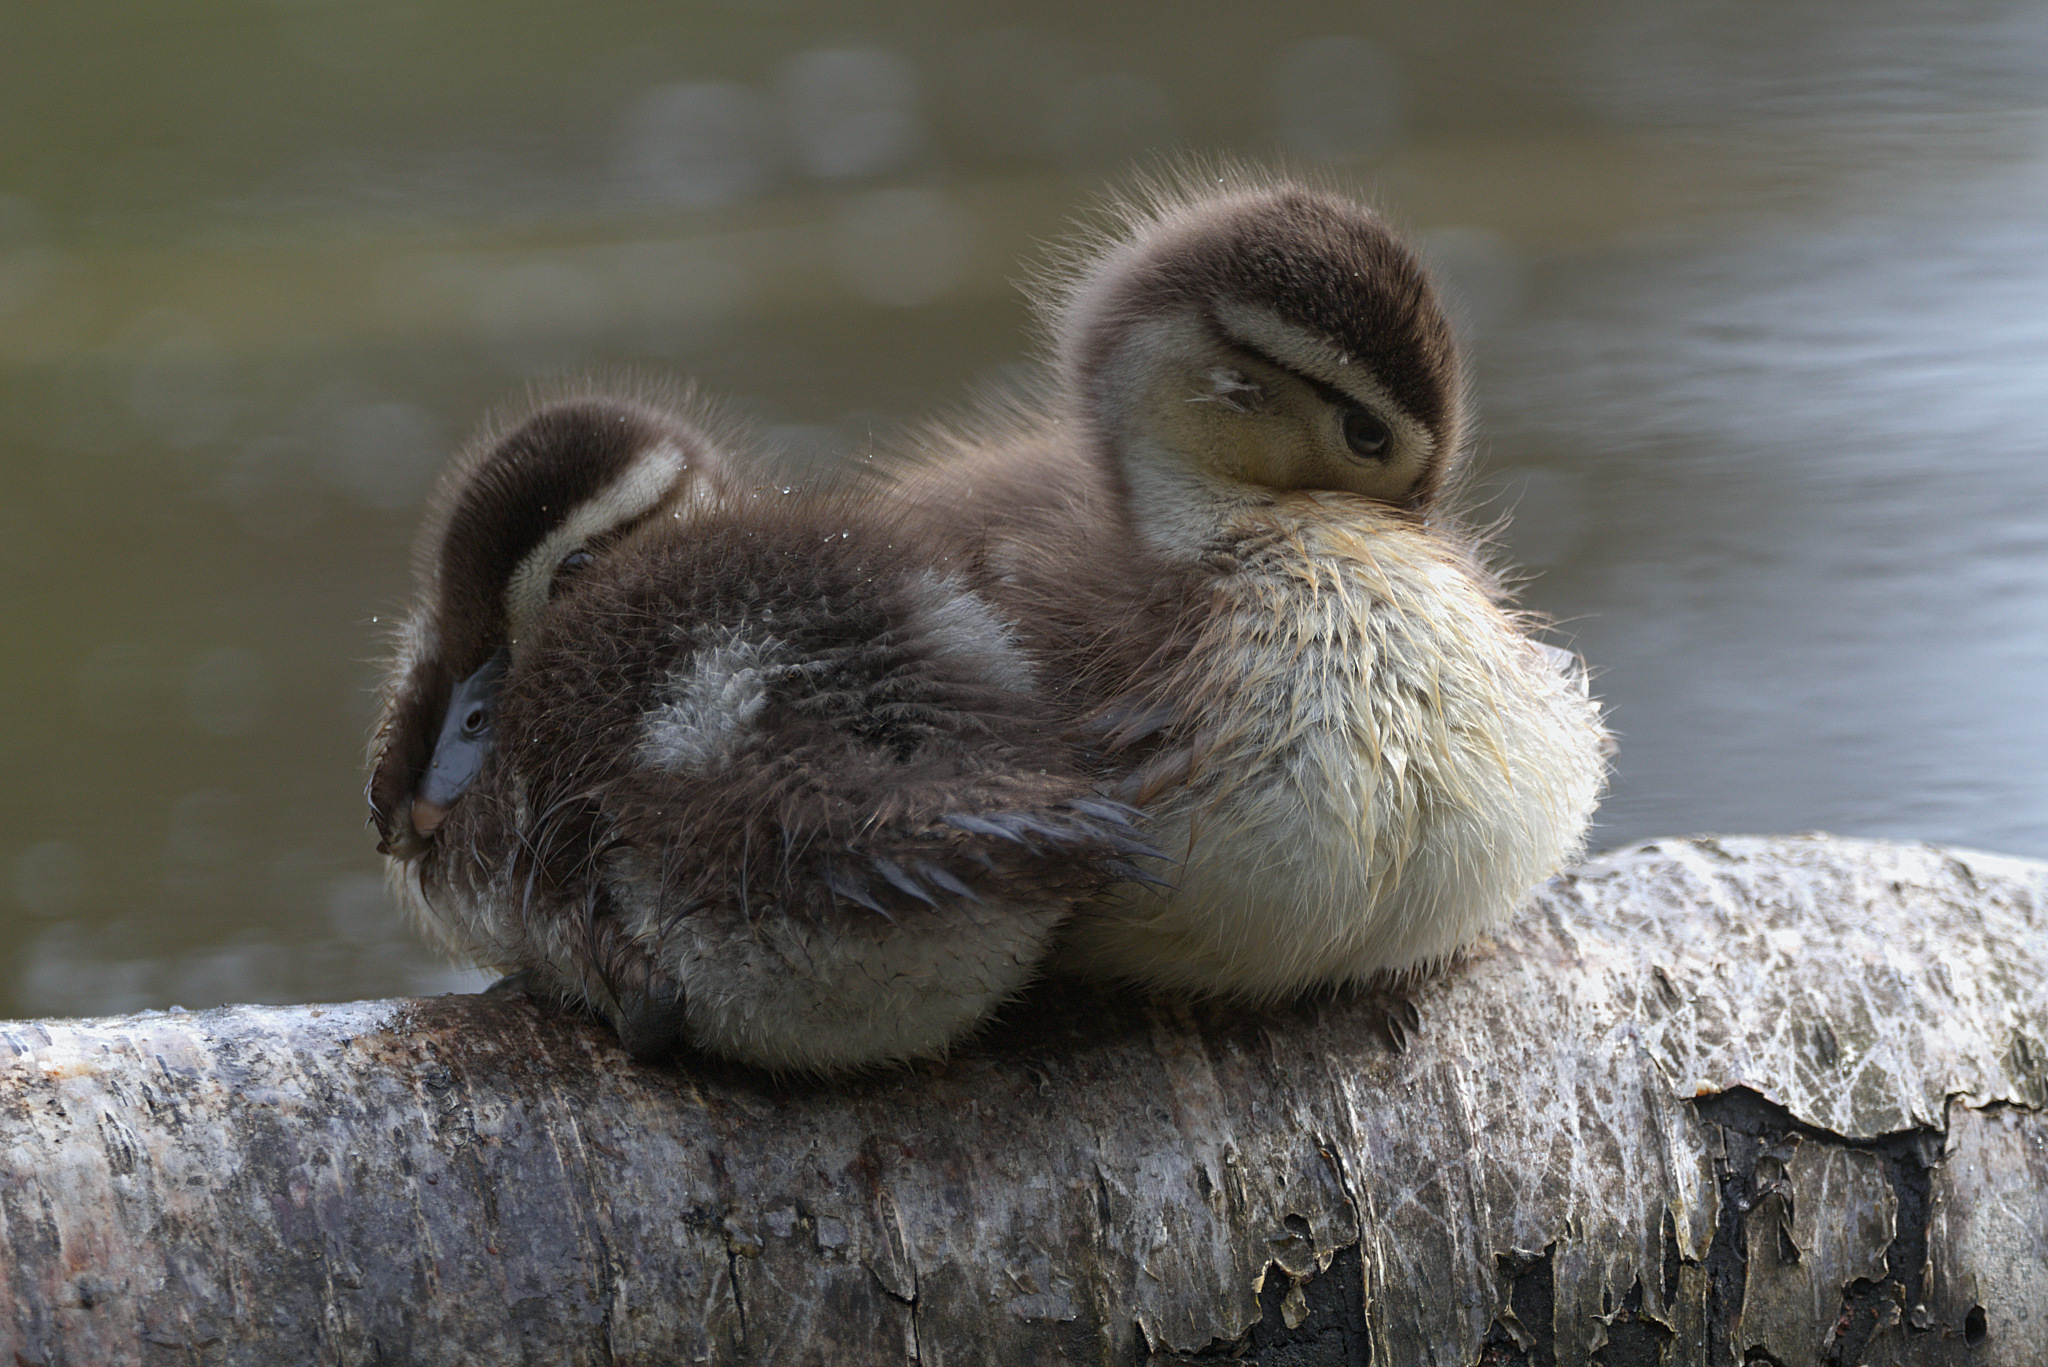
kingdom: Animalia
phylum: Chordata
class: Aves
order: Anseriformes
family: Anatidae
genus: Aix
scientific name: Aix sponsa
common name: Wood duck
